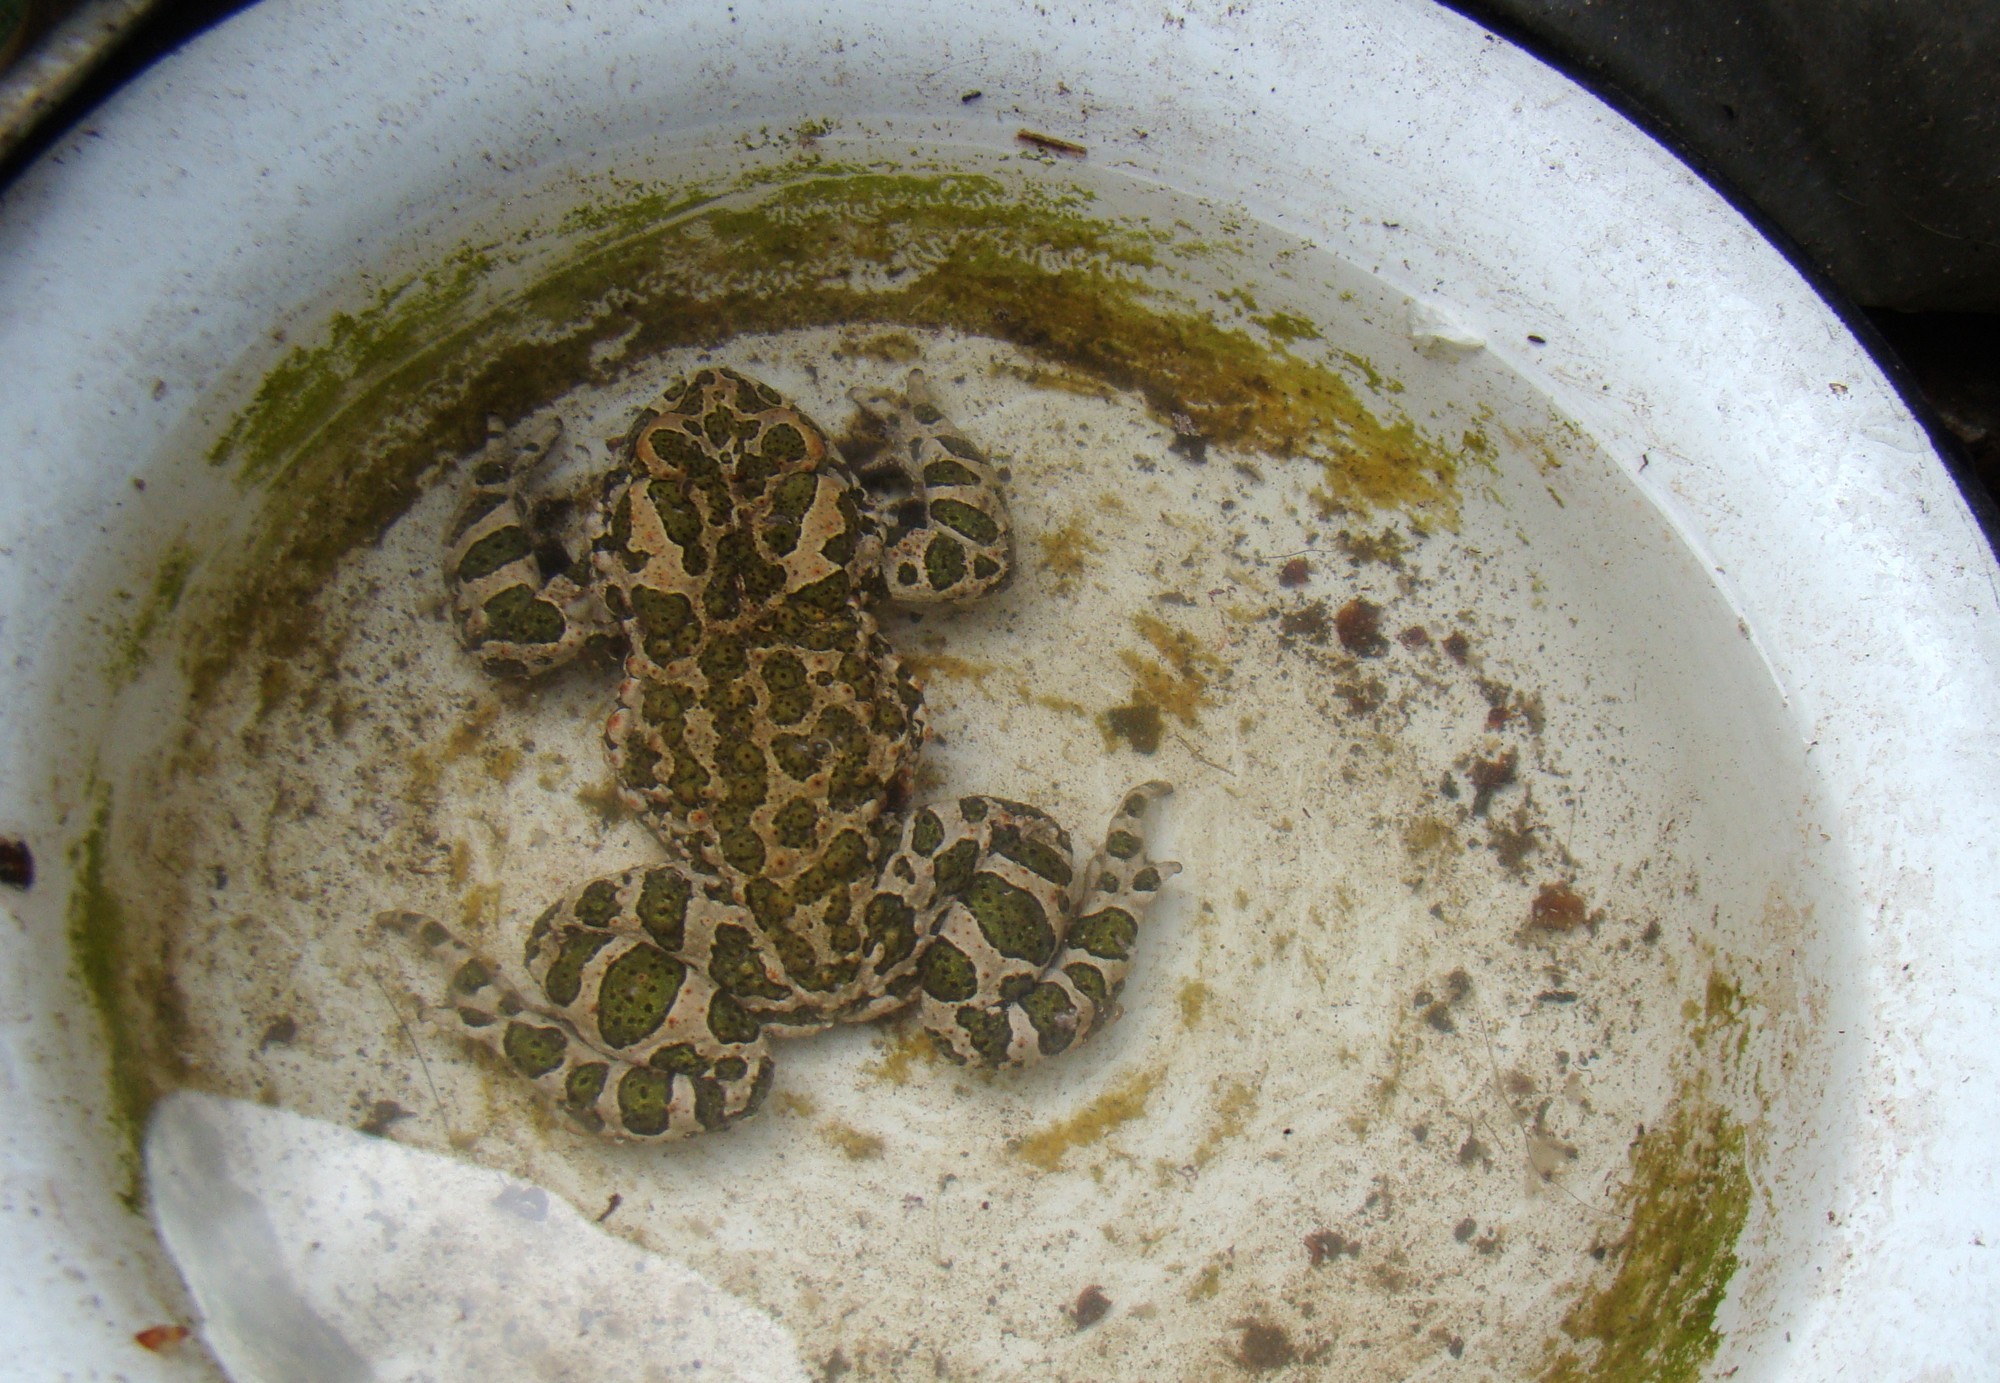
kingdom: Animalia
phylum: Chordata
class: Amphibia
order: Anura
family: Bufonidae
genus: Bufotes
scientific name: Bufotes viridis
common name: European green toad
